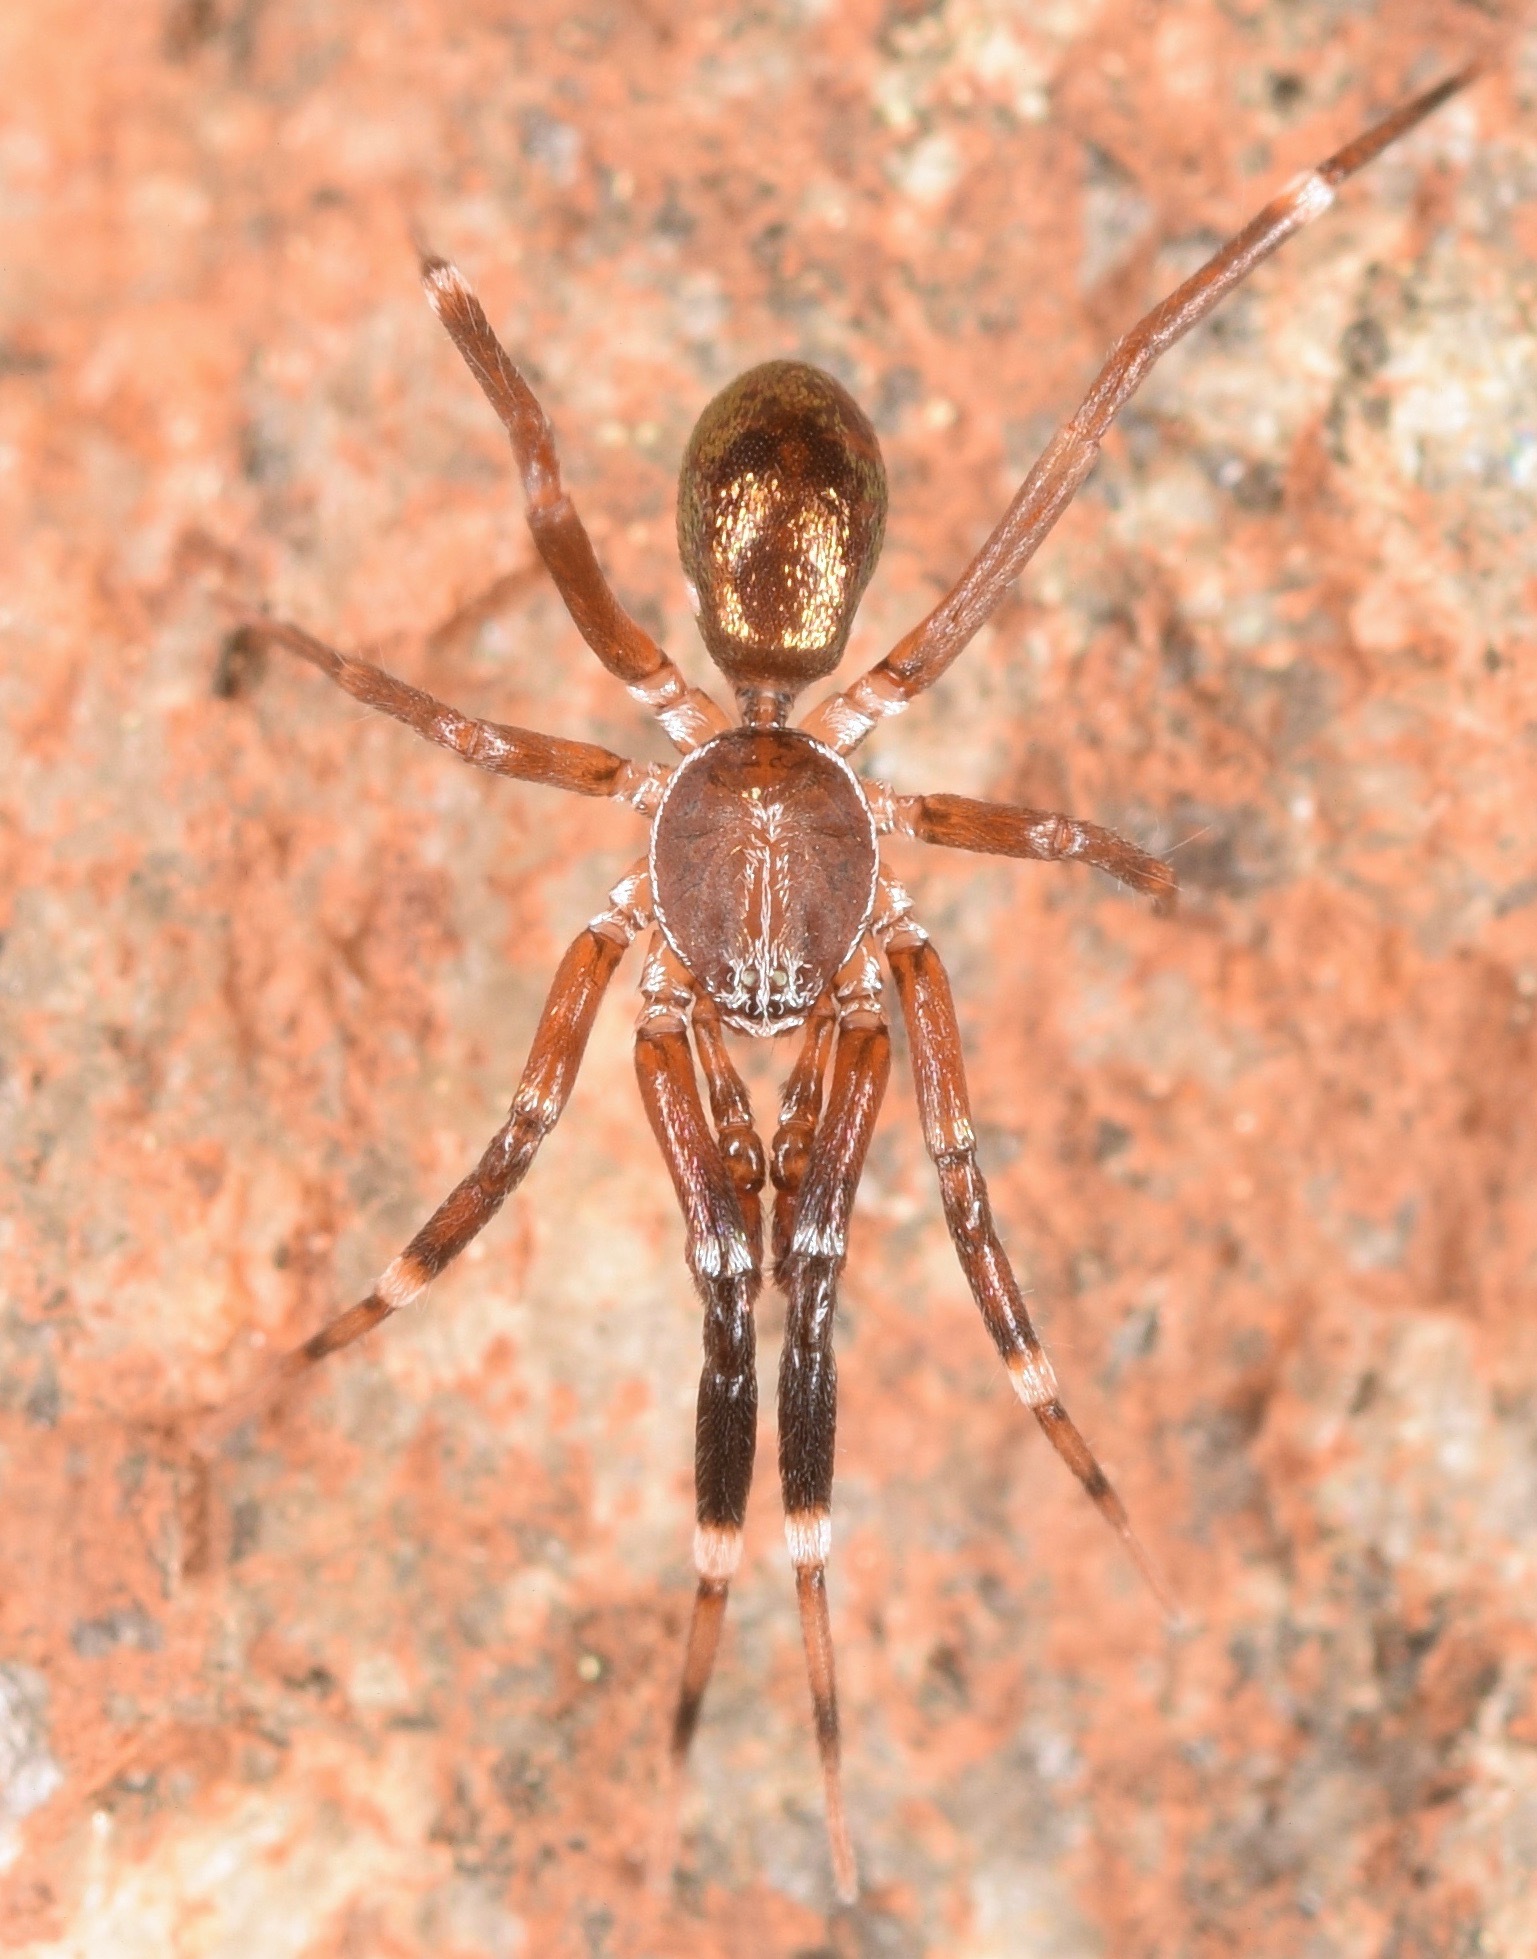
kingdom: Animalia
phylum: Arthropoda
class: Arachnida
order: Araneae
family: Phrurolithidae
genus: Phrurotimpus
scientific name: Phrurotimpus
